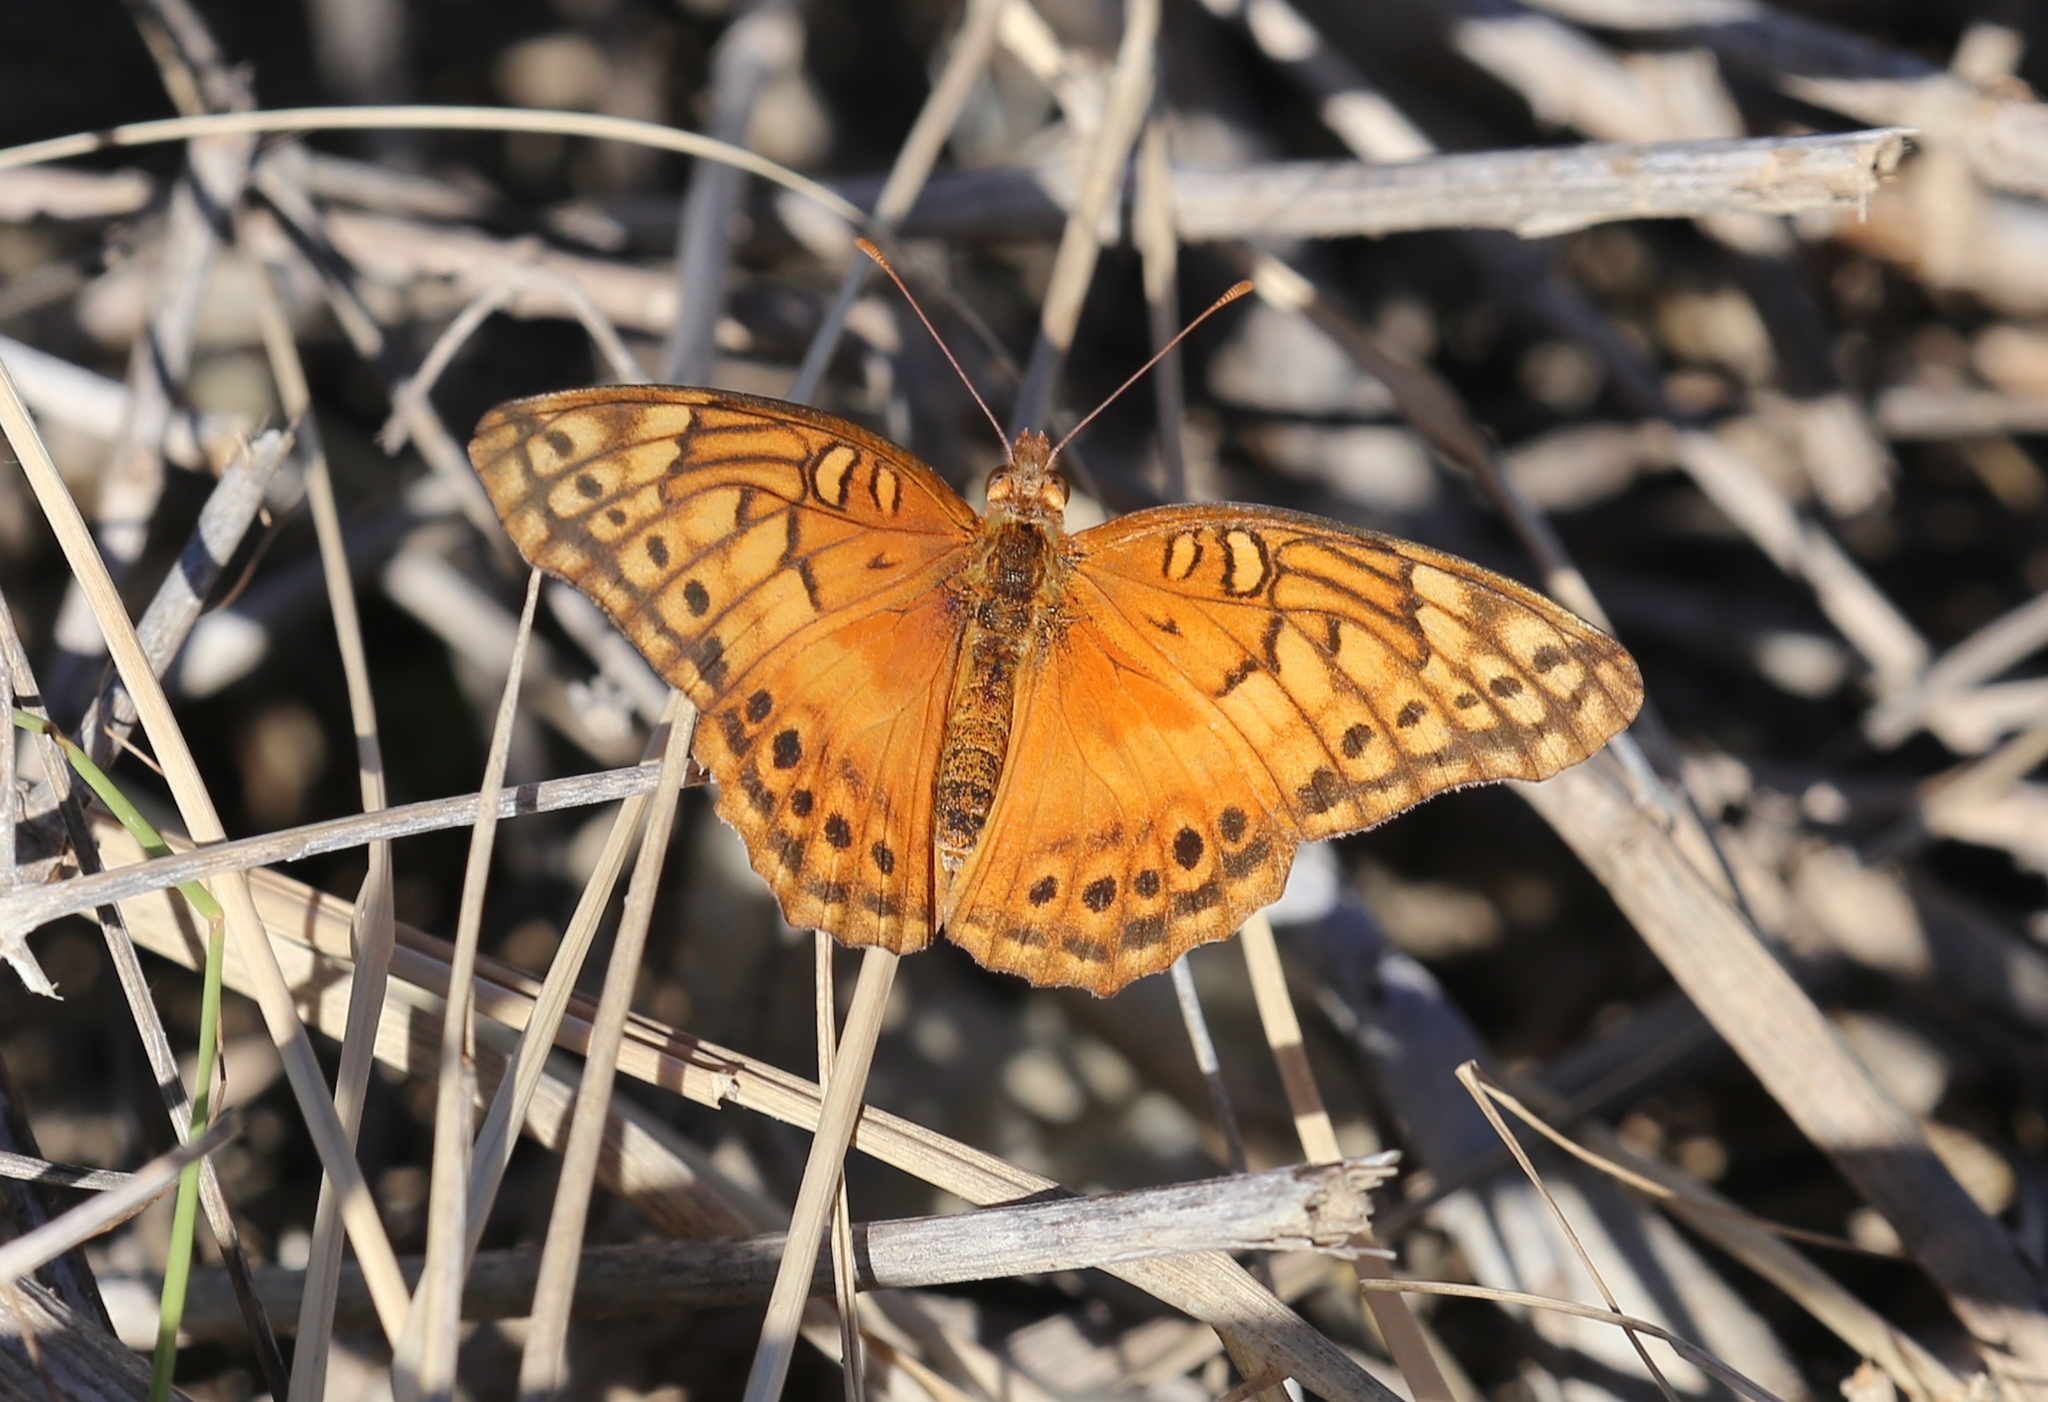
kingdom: Animalia
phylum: Arthropoda
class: Insecta
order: Lepidoptera
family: Nymphalidae
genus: Euptoieta
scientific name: Euptoieta hegesia
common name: Mexican fritillary
